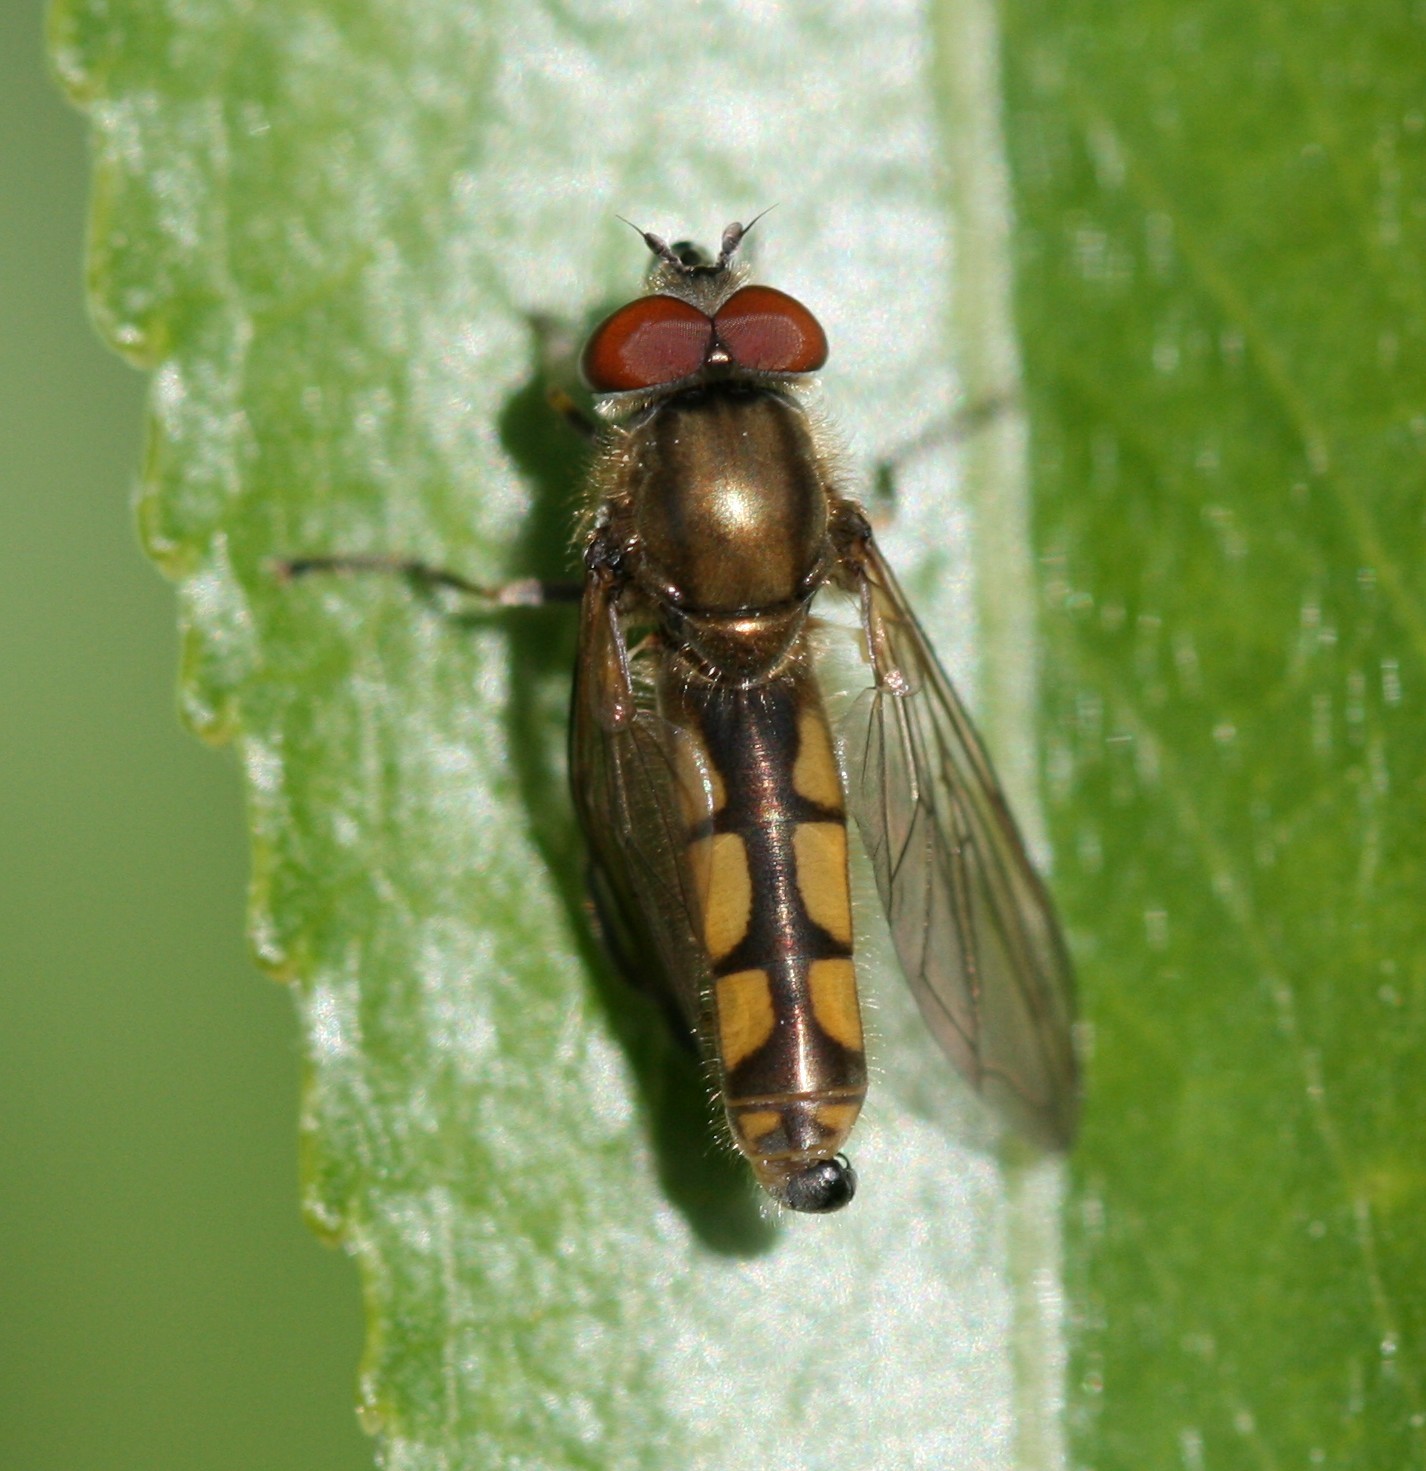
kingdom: Animalia
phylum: Arthropoda
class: Insecta
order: Diptera
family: Syrphidae
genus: Platycheirus
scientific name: Platycheirus manicatus
